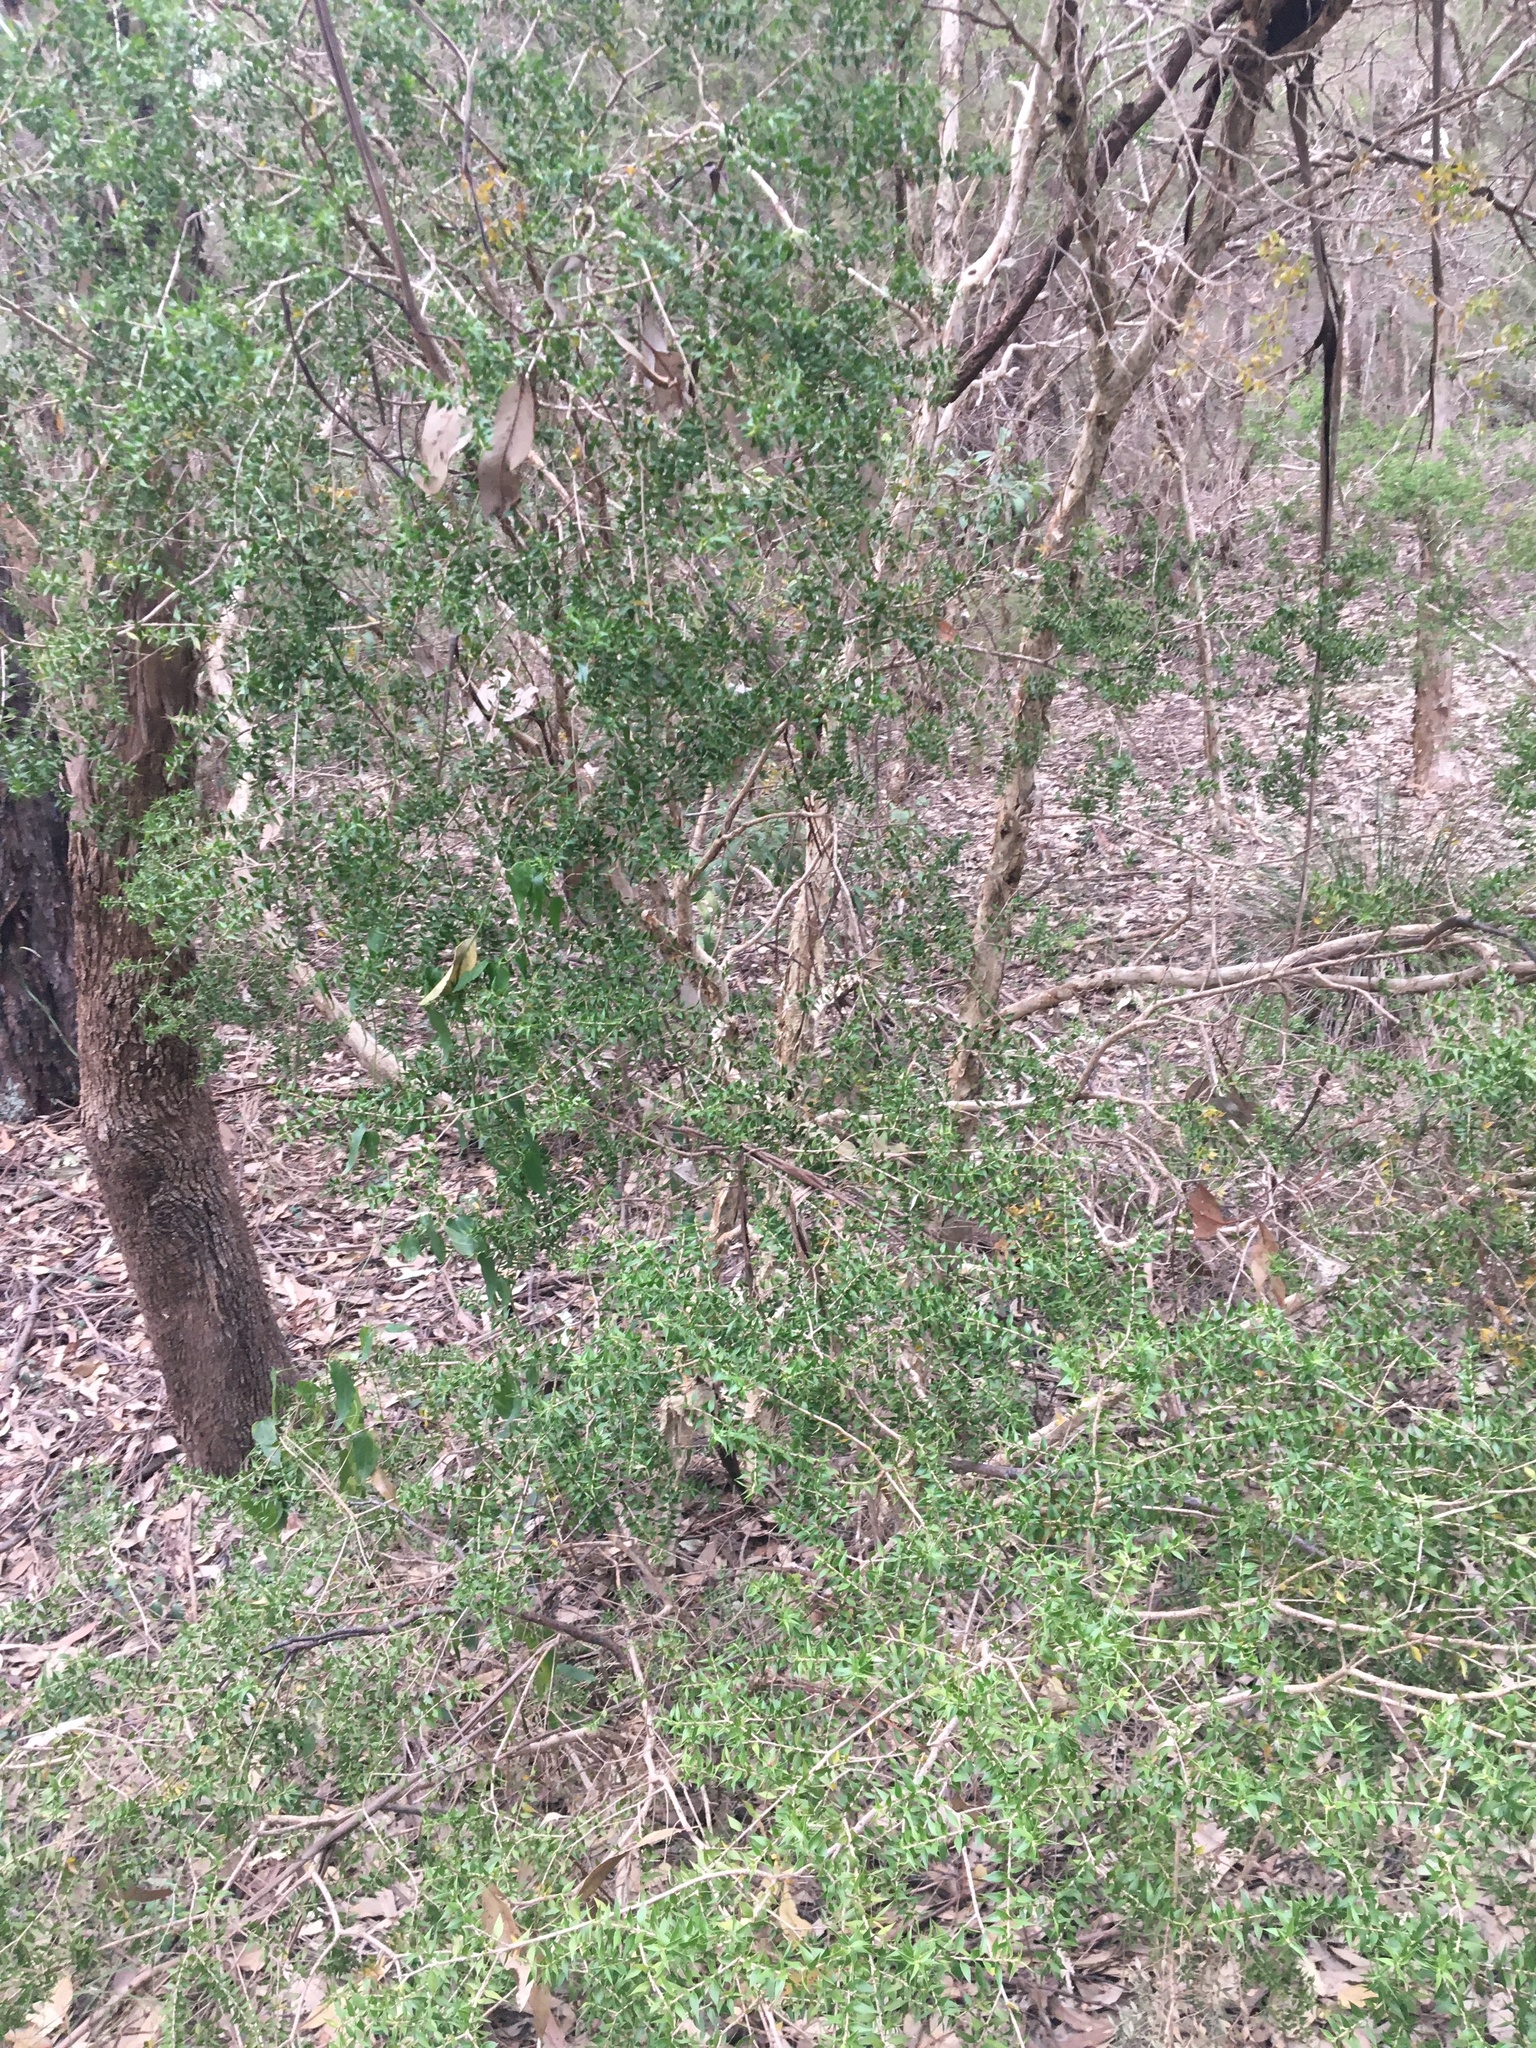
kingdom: Plantae
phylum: Tracheophyta
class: Magnoliopsida
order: Myrtales
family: Myrtaceae
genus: Melaleuca
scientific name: Melaleuca styphelioides
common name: Prickly paperbark
